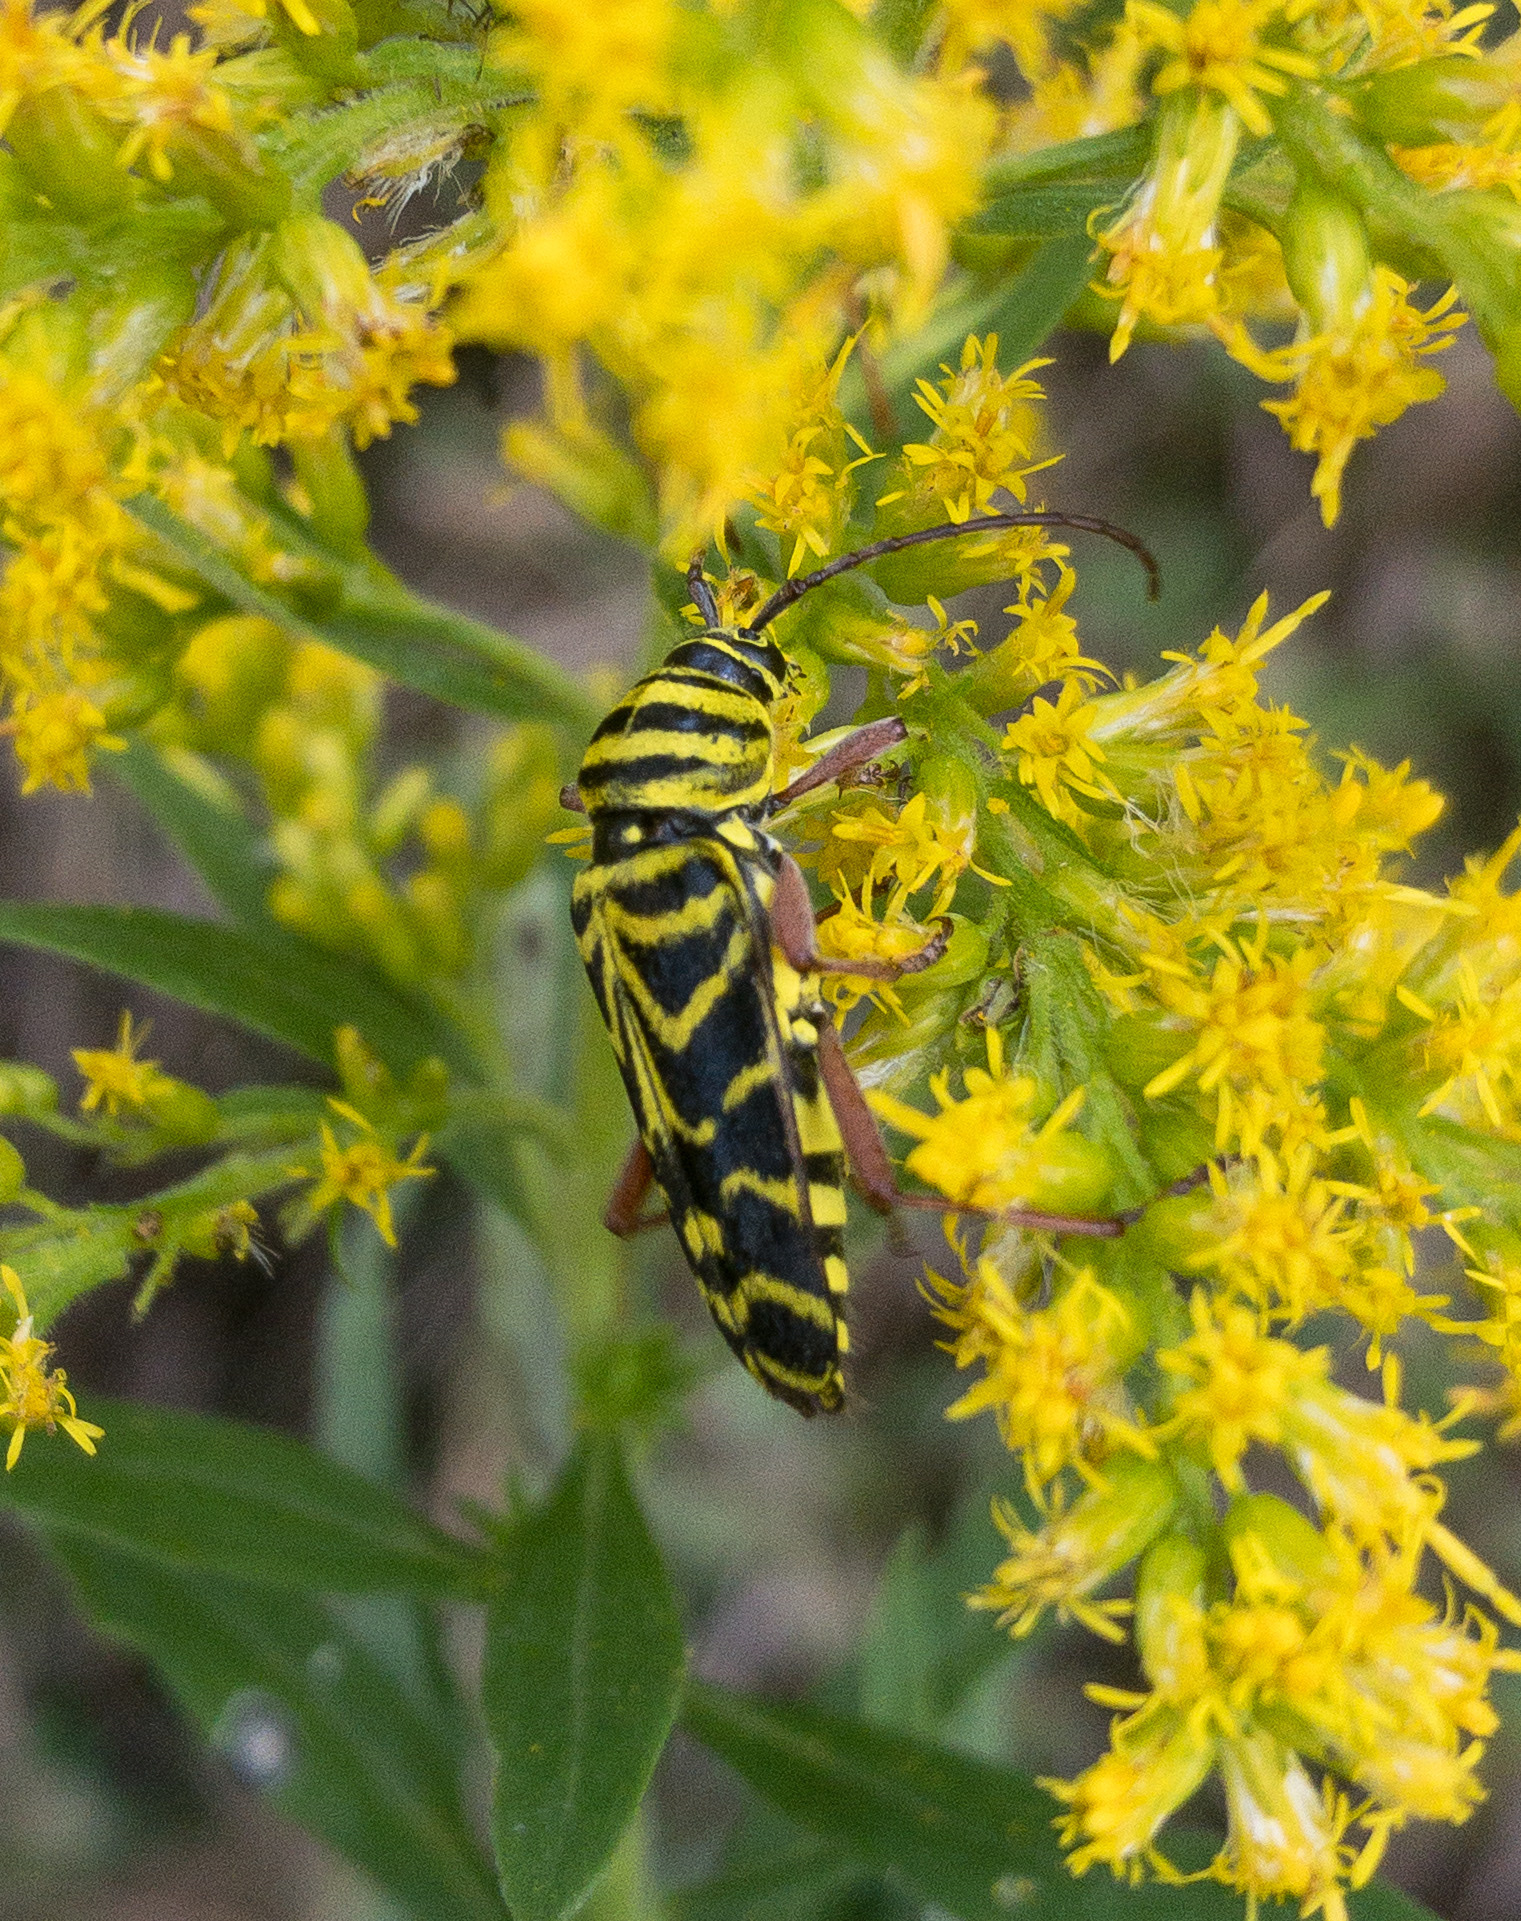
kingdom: Animalia
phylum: Arthropoda
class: Insecta
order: Coleoptera
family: Cerambycidae
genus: Megacyllene
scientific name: Megacyllene robiniae
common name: Locust borer
